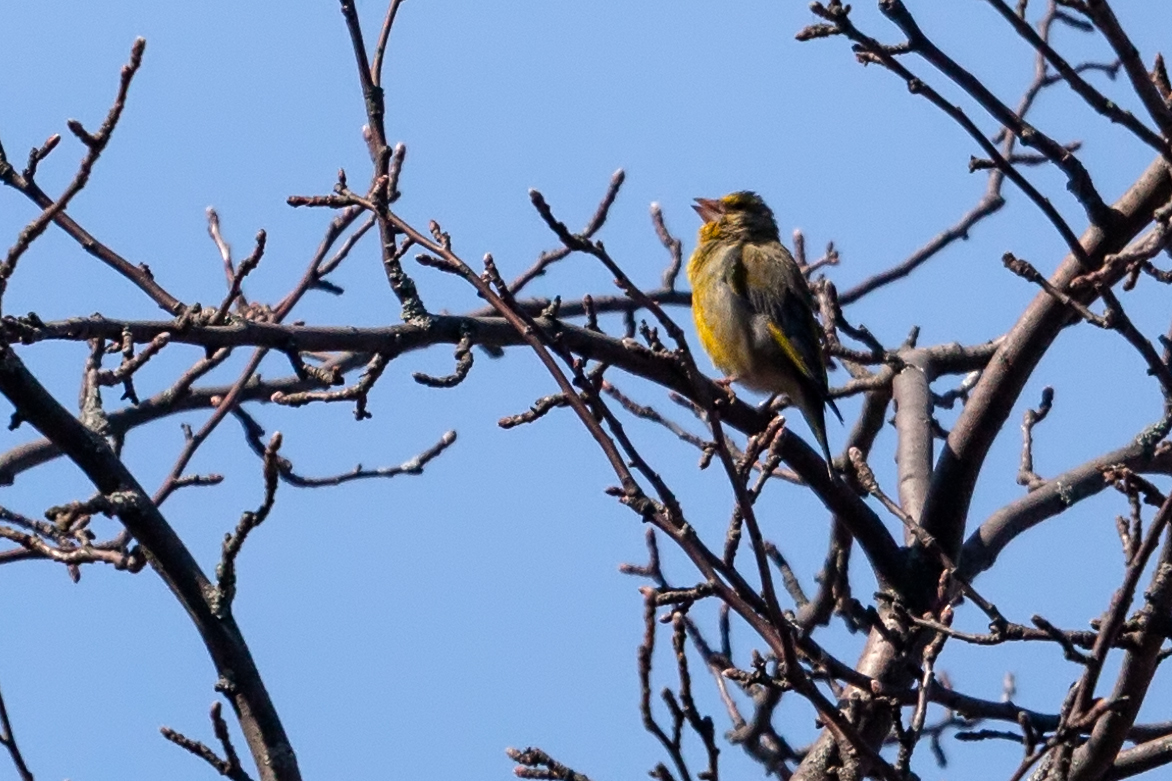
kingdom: Plantae
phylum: Tracheophyta
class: Liliopsida
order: Poales
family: Poaceae
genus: Chloris
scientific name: Chloris chloris
